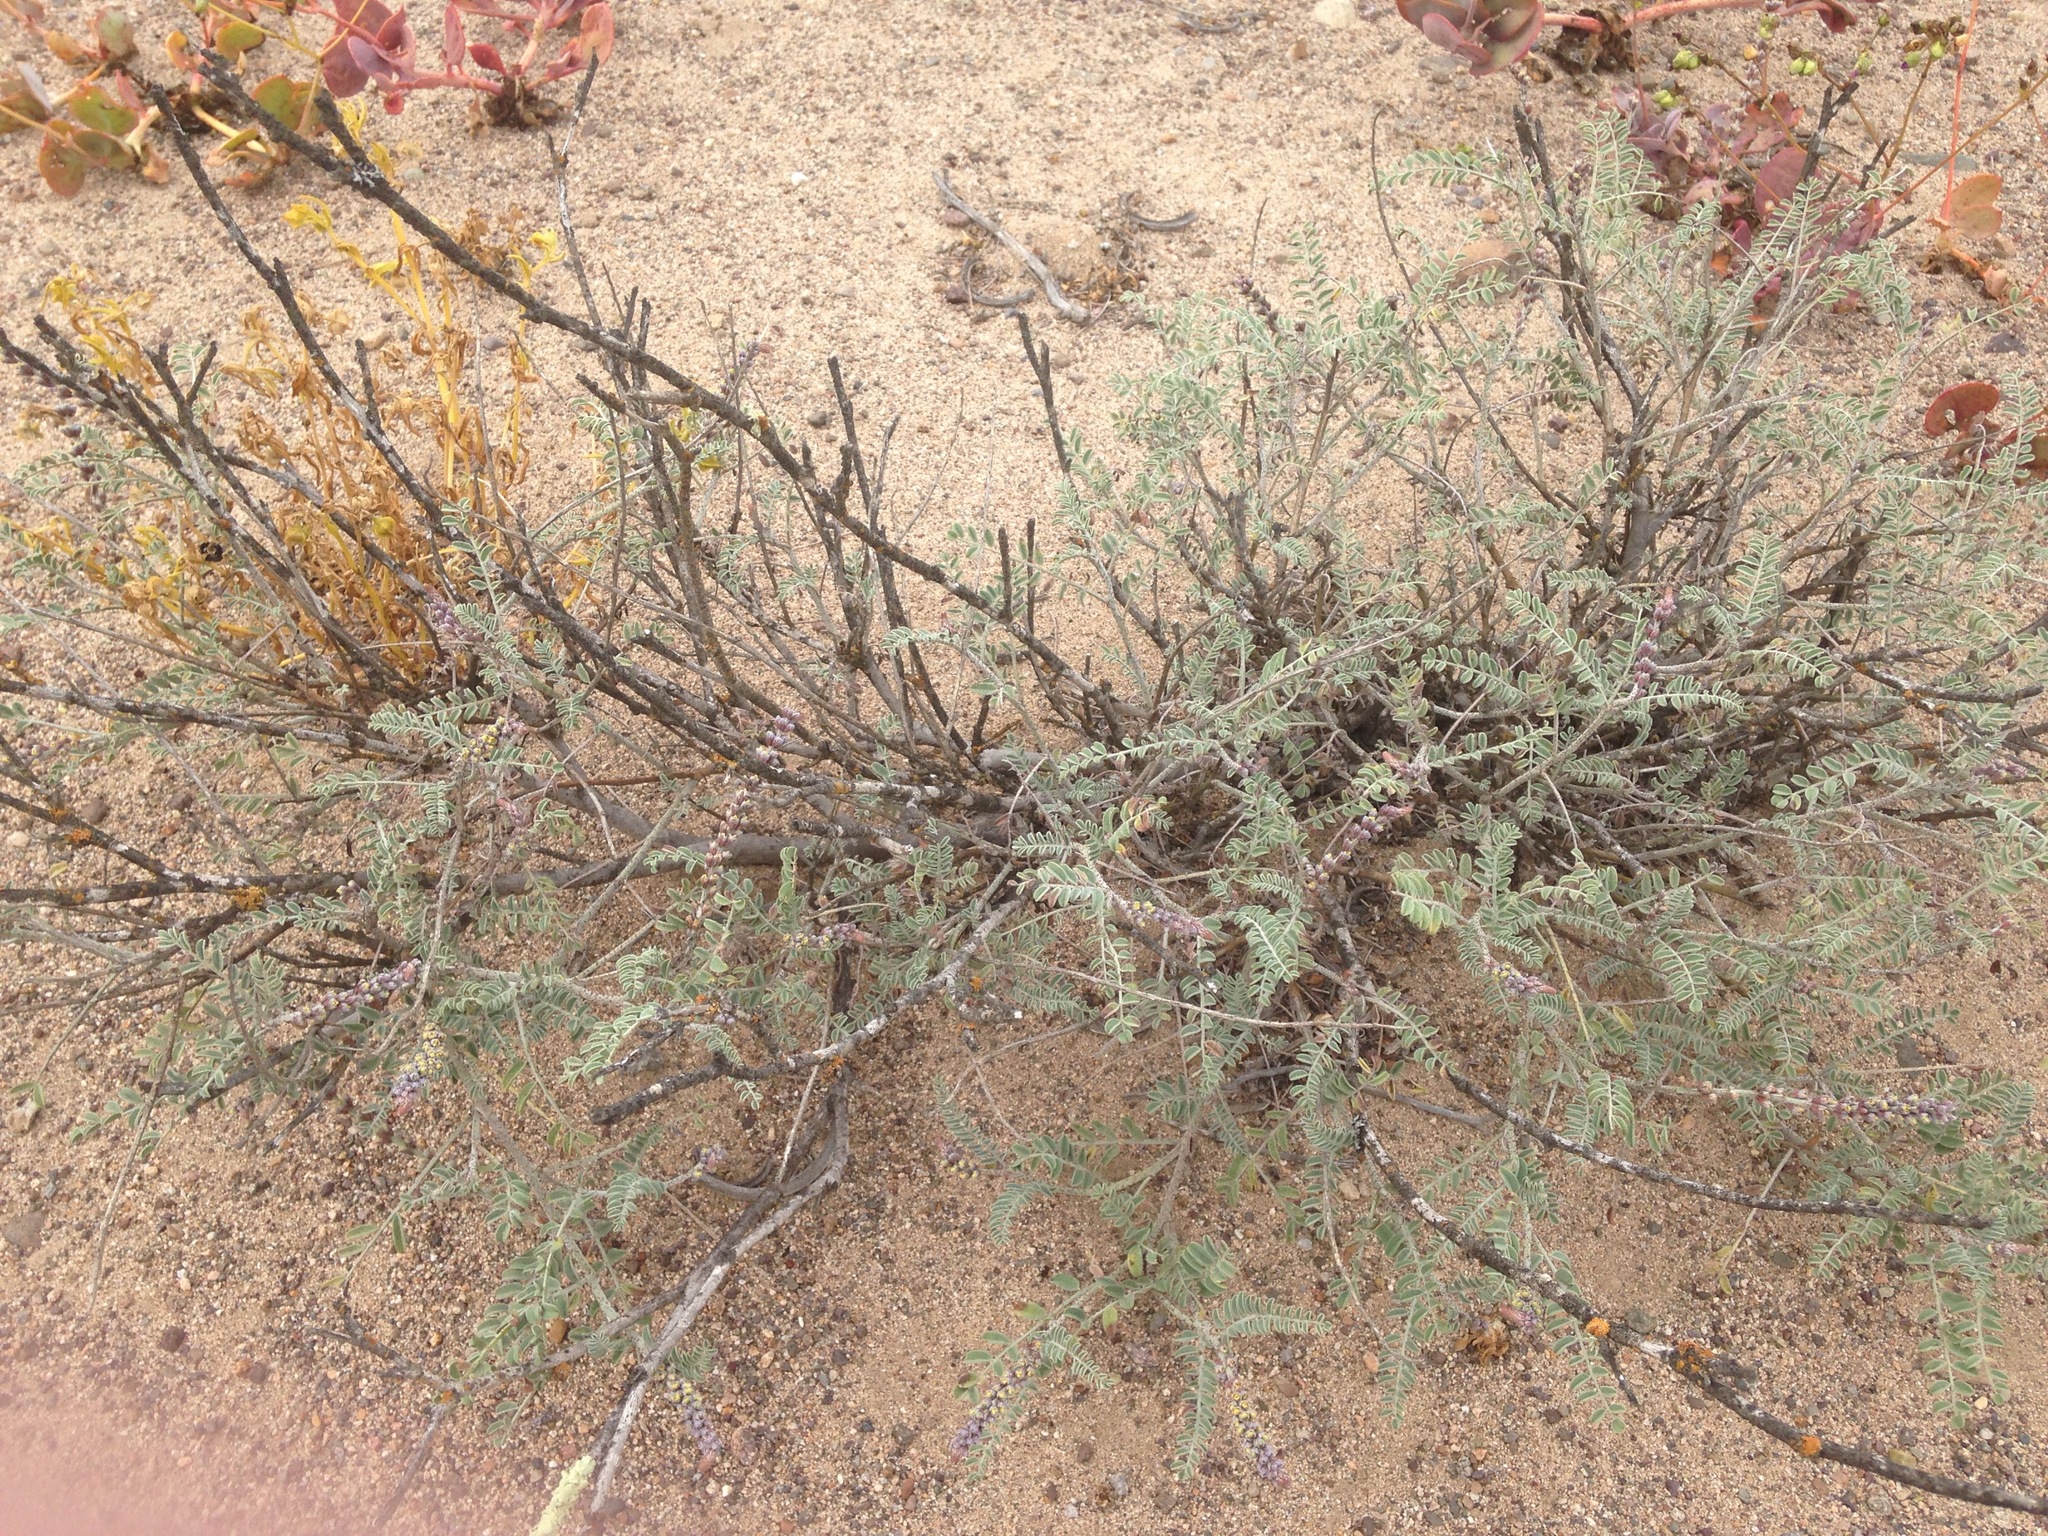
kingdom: Plantae
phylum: Tracheophyta
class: Magnoliopsida
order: Fabales
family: Fabaceae
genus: Errazurizia
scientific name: Errazurizia multifoliolata
